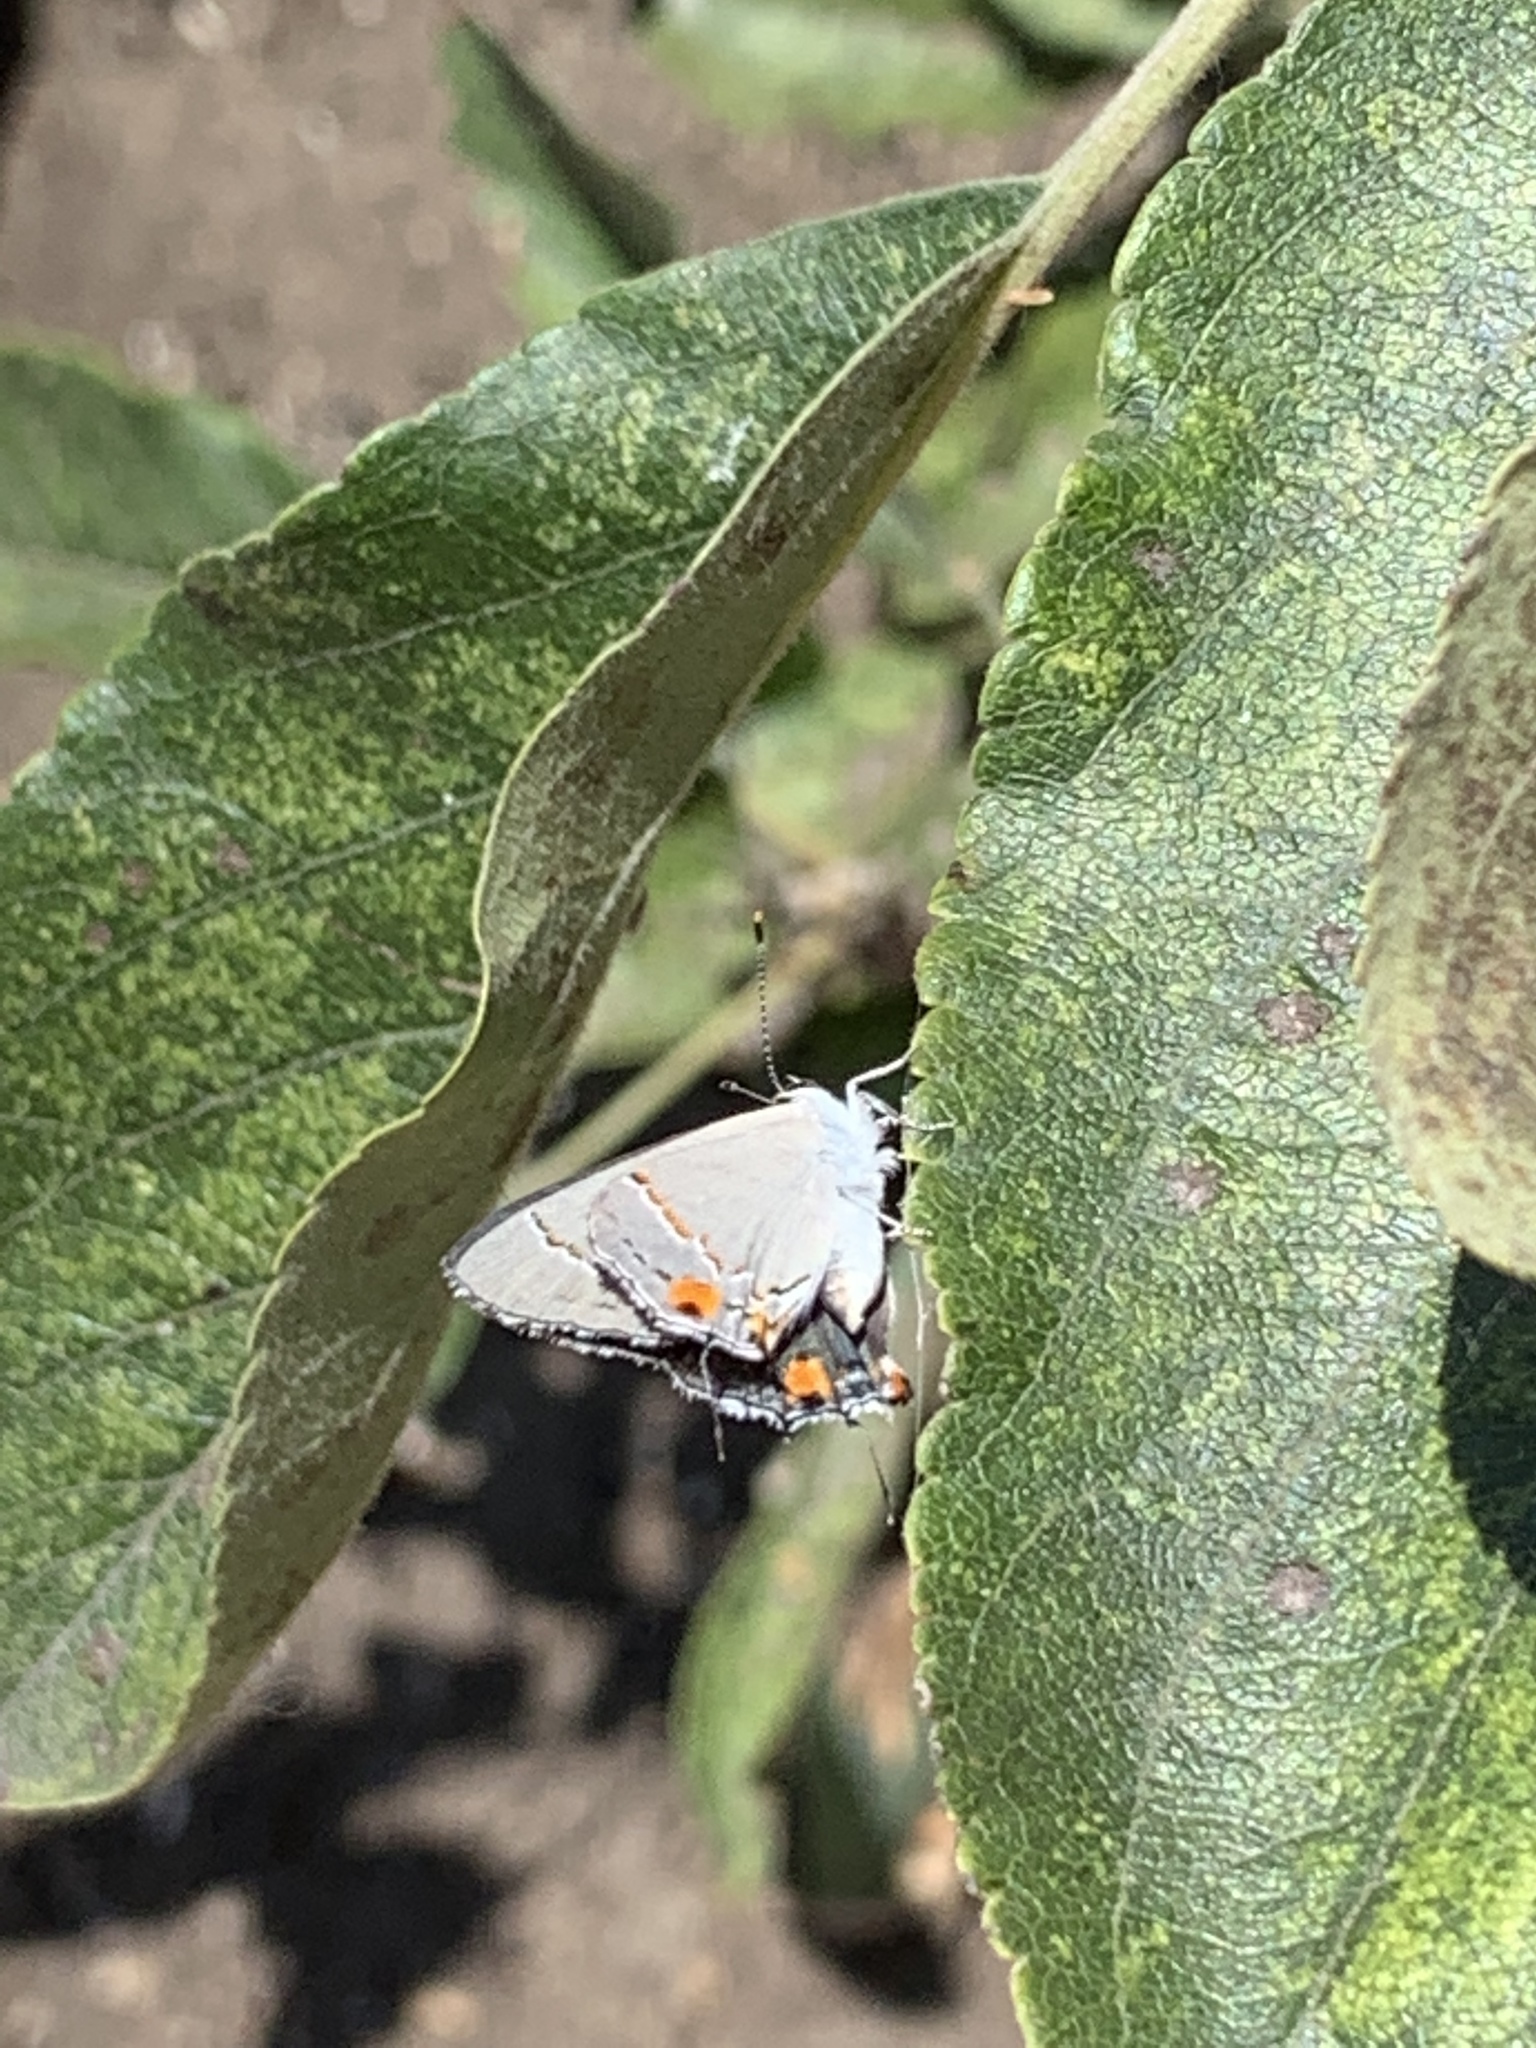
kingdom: Animalia
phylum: Arthropoda
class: Insecta
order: Lepidoptera
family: Lycaenidae
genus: Strymon
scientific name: Strymon melinus
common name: Gray hairstreak
